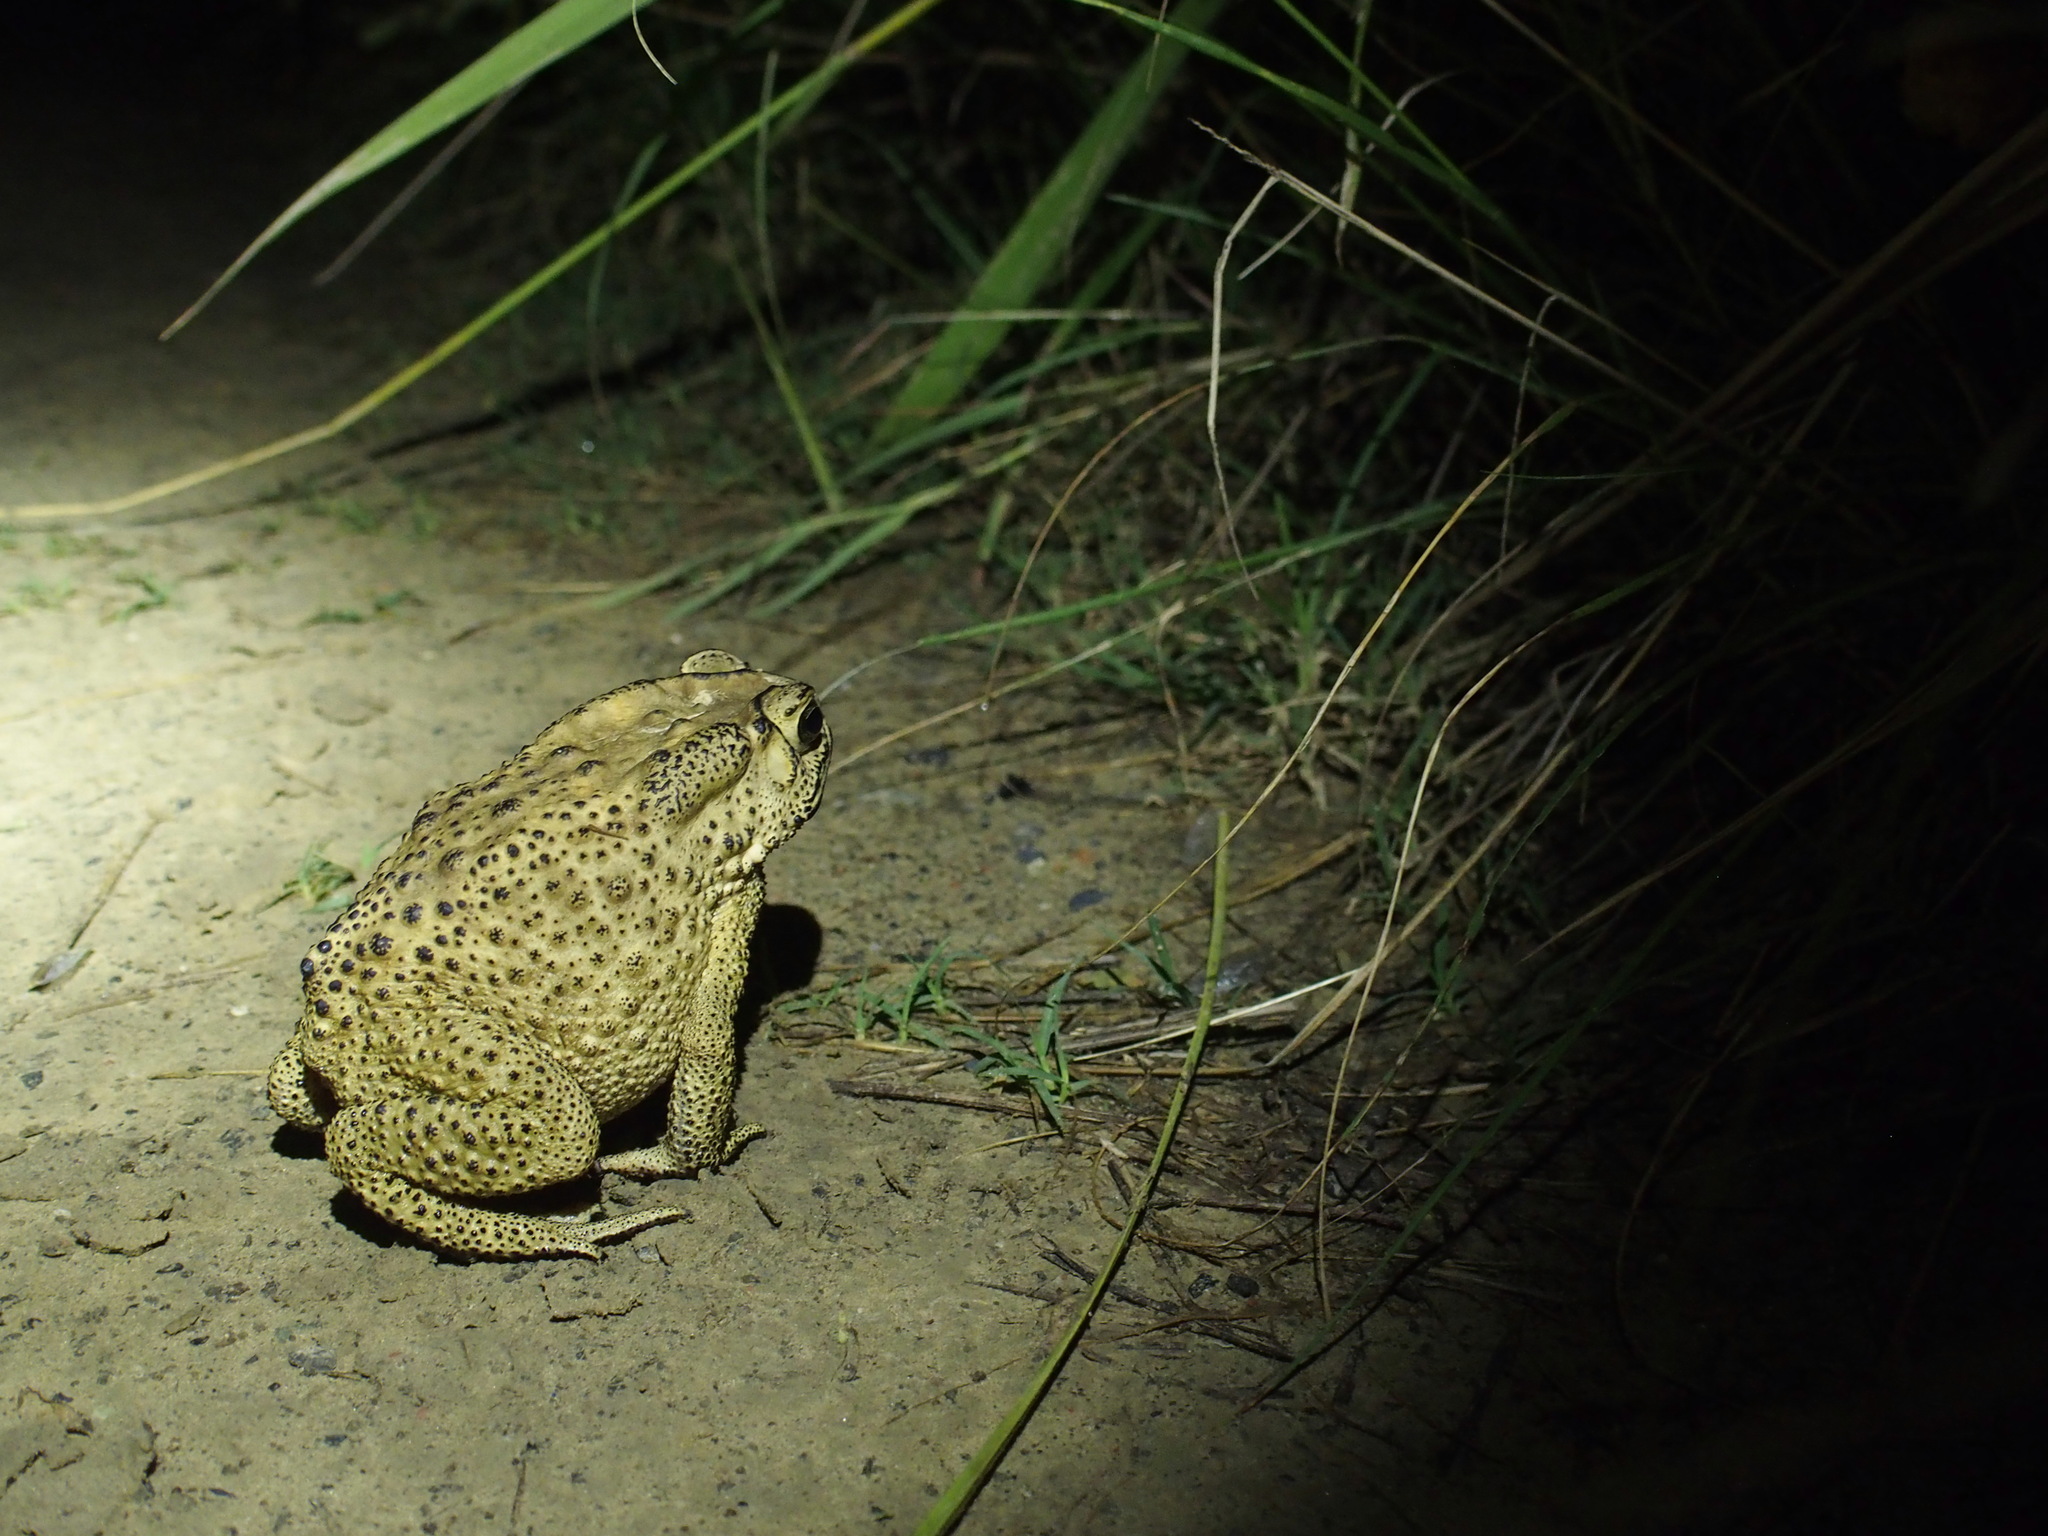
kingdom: Animalia
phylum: Chordata
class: Amphibia
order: Anura
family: Bufonidae
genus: Duttaphrynus
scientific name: Duttaphrynus melanostictus
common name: Common sunda toad
